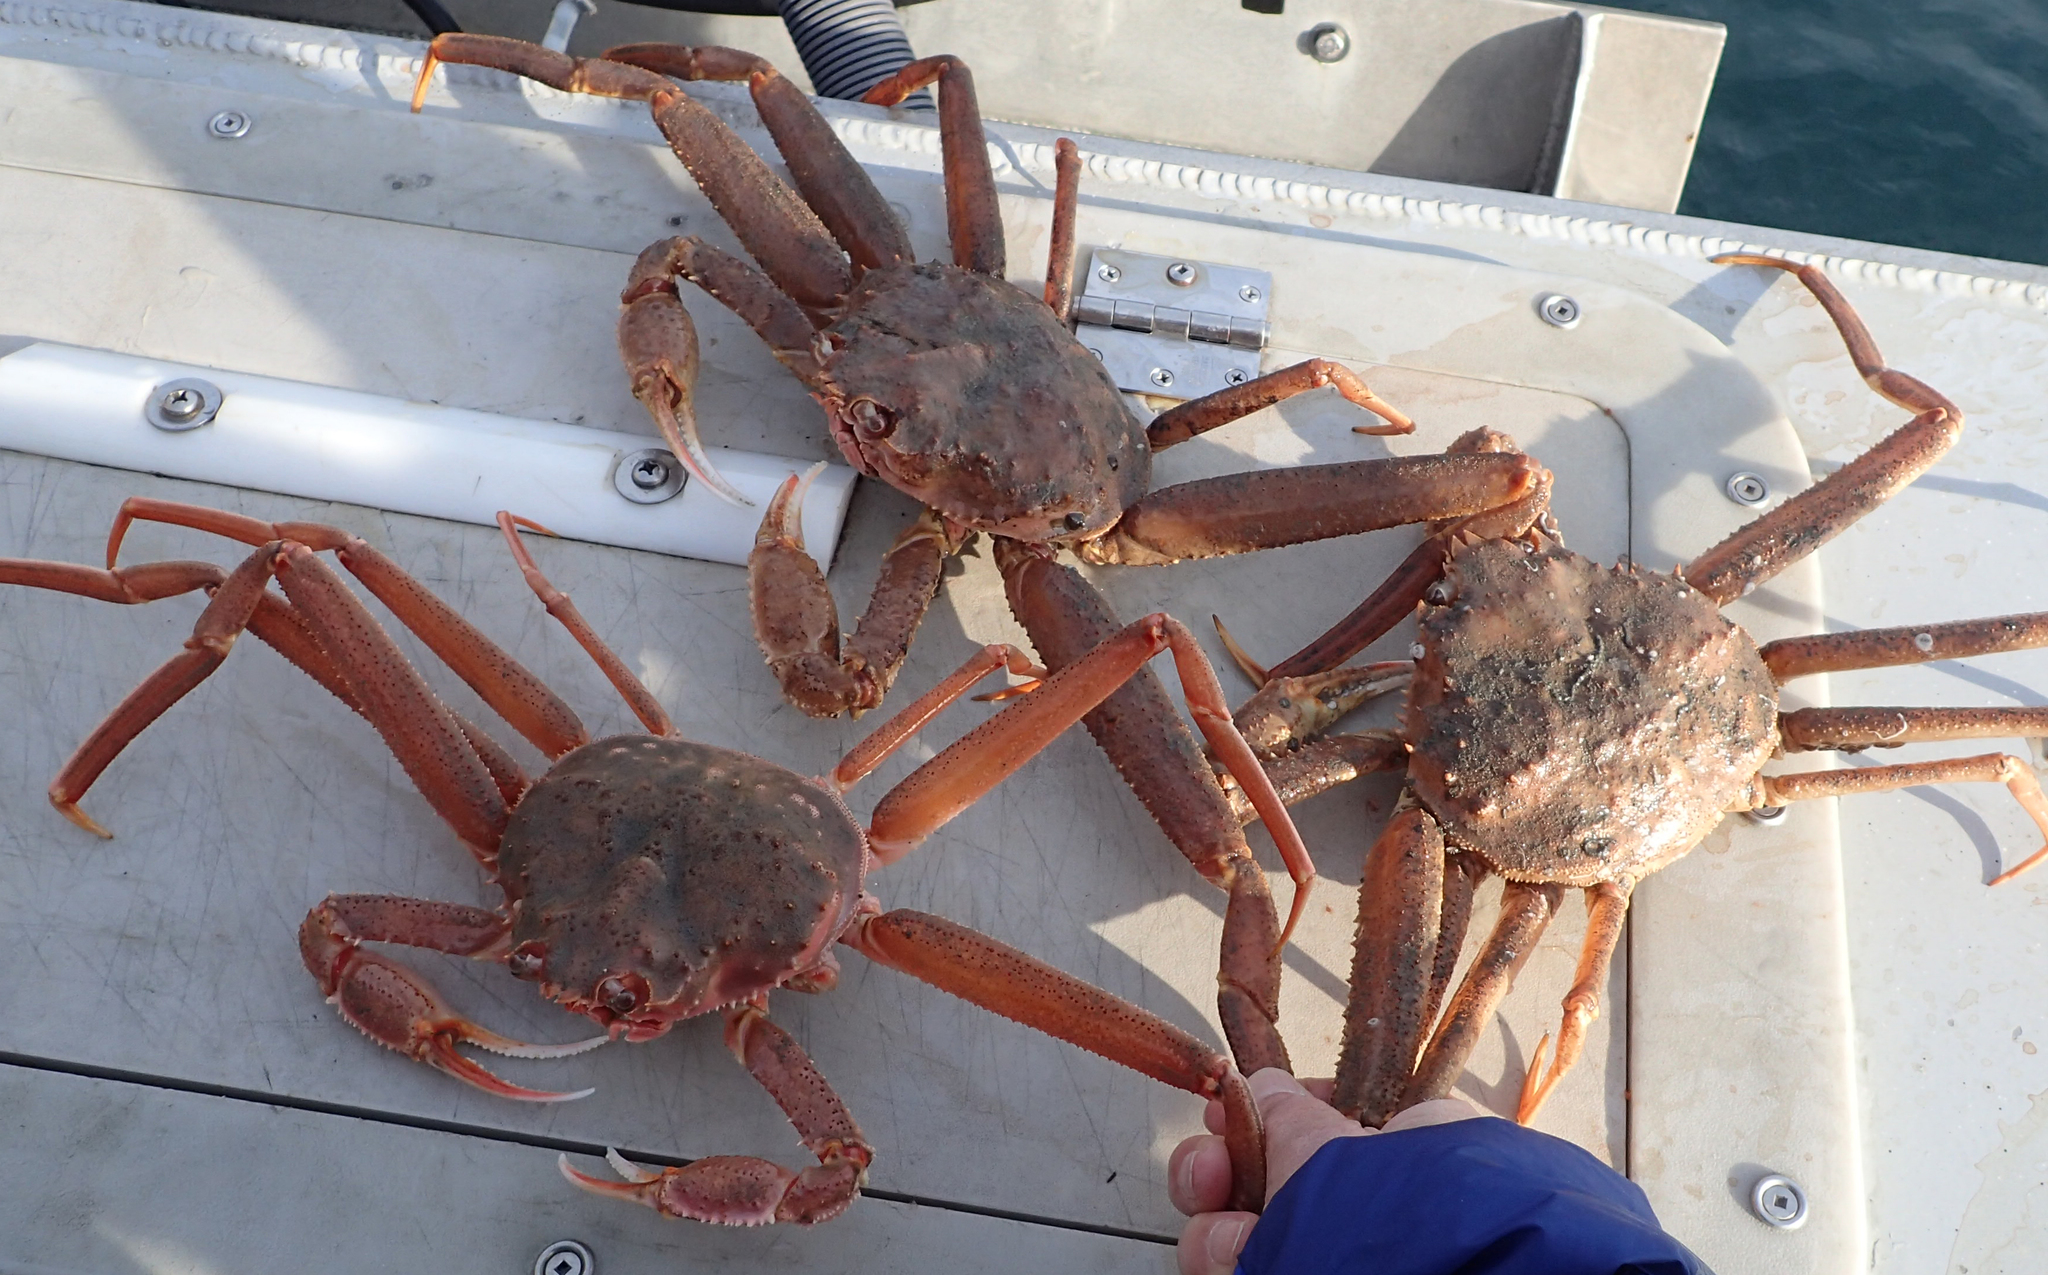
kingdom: Animalia
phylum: Arthropoda
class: Malacostraca
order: Decapoda
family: Oregoniidae
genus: Chionoecetes
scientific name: Chionoecetes bairdi
